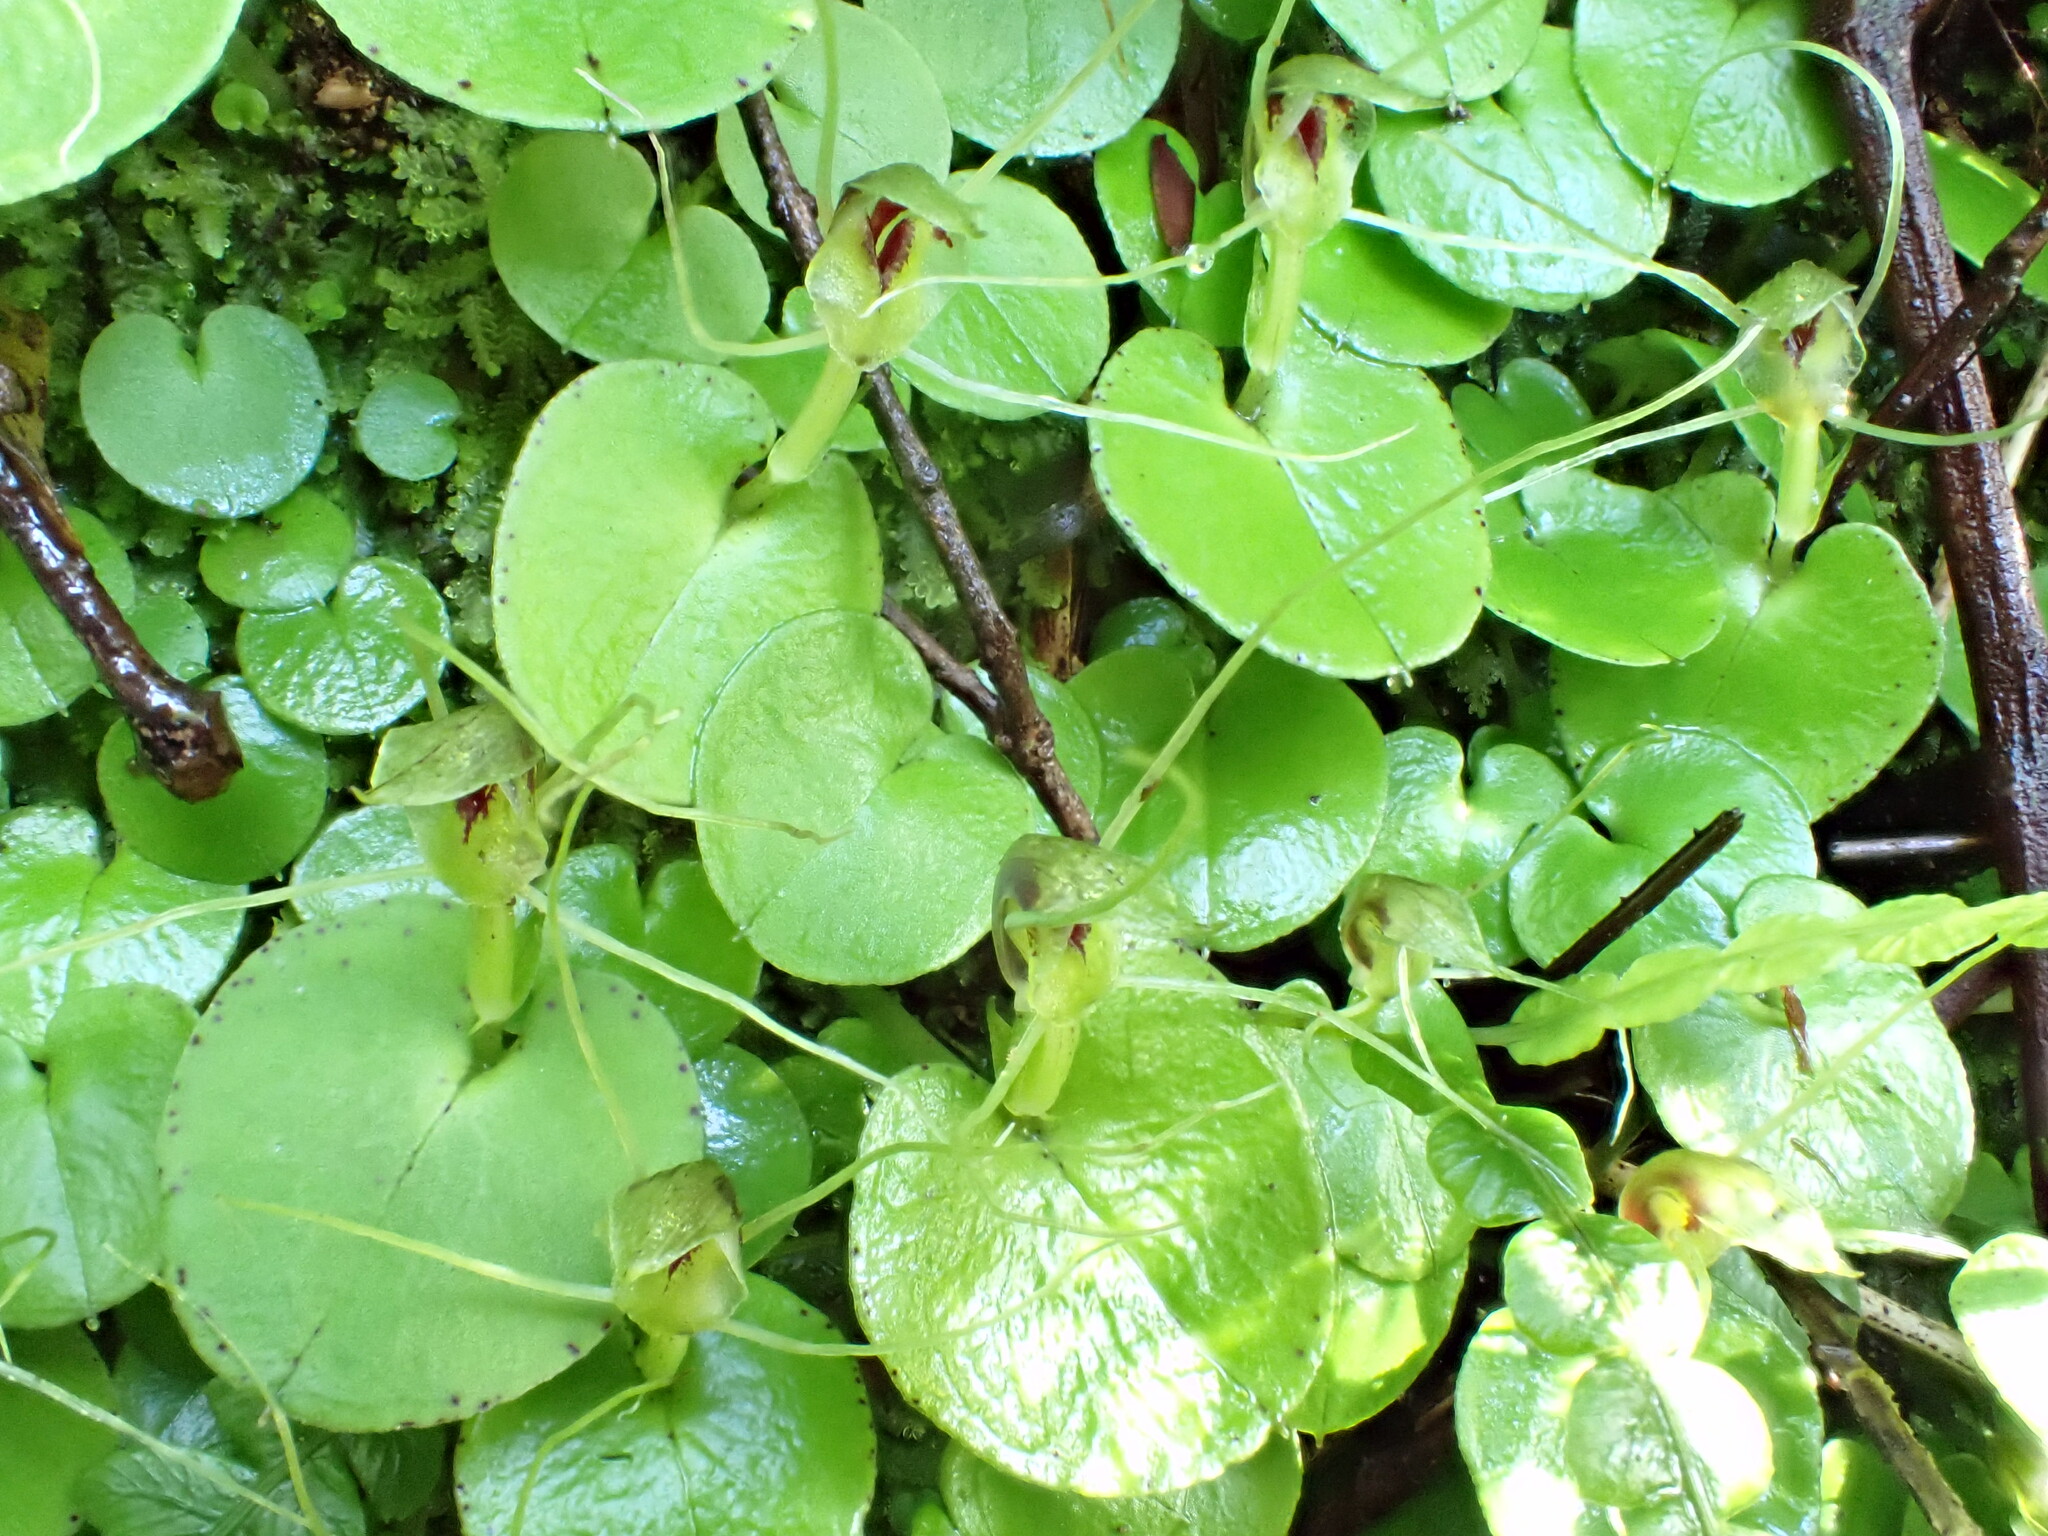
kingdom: Plantae
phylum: Tracheophyta
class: Liliopsida
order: Asparagales
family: Orchidaceae
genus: Corybas
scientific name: Corybas papa
